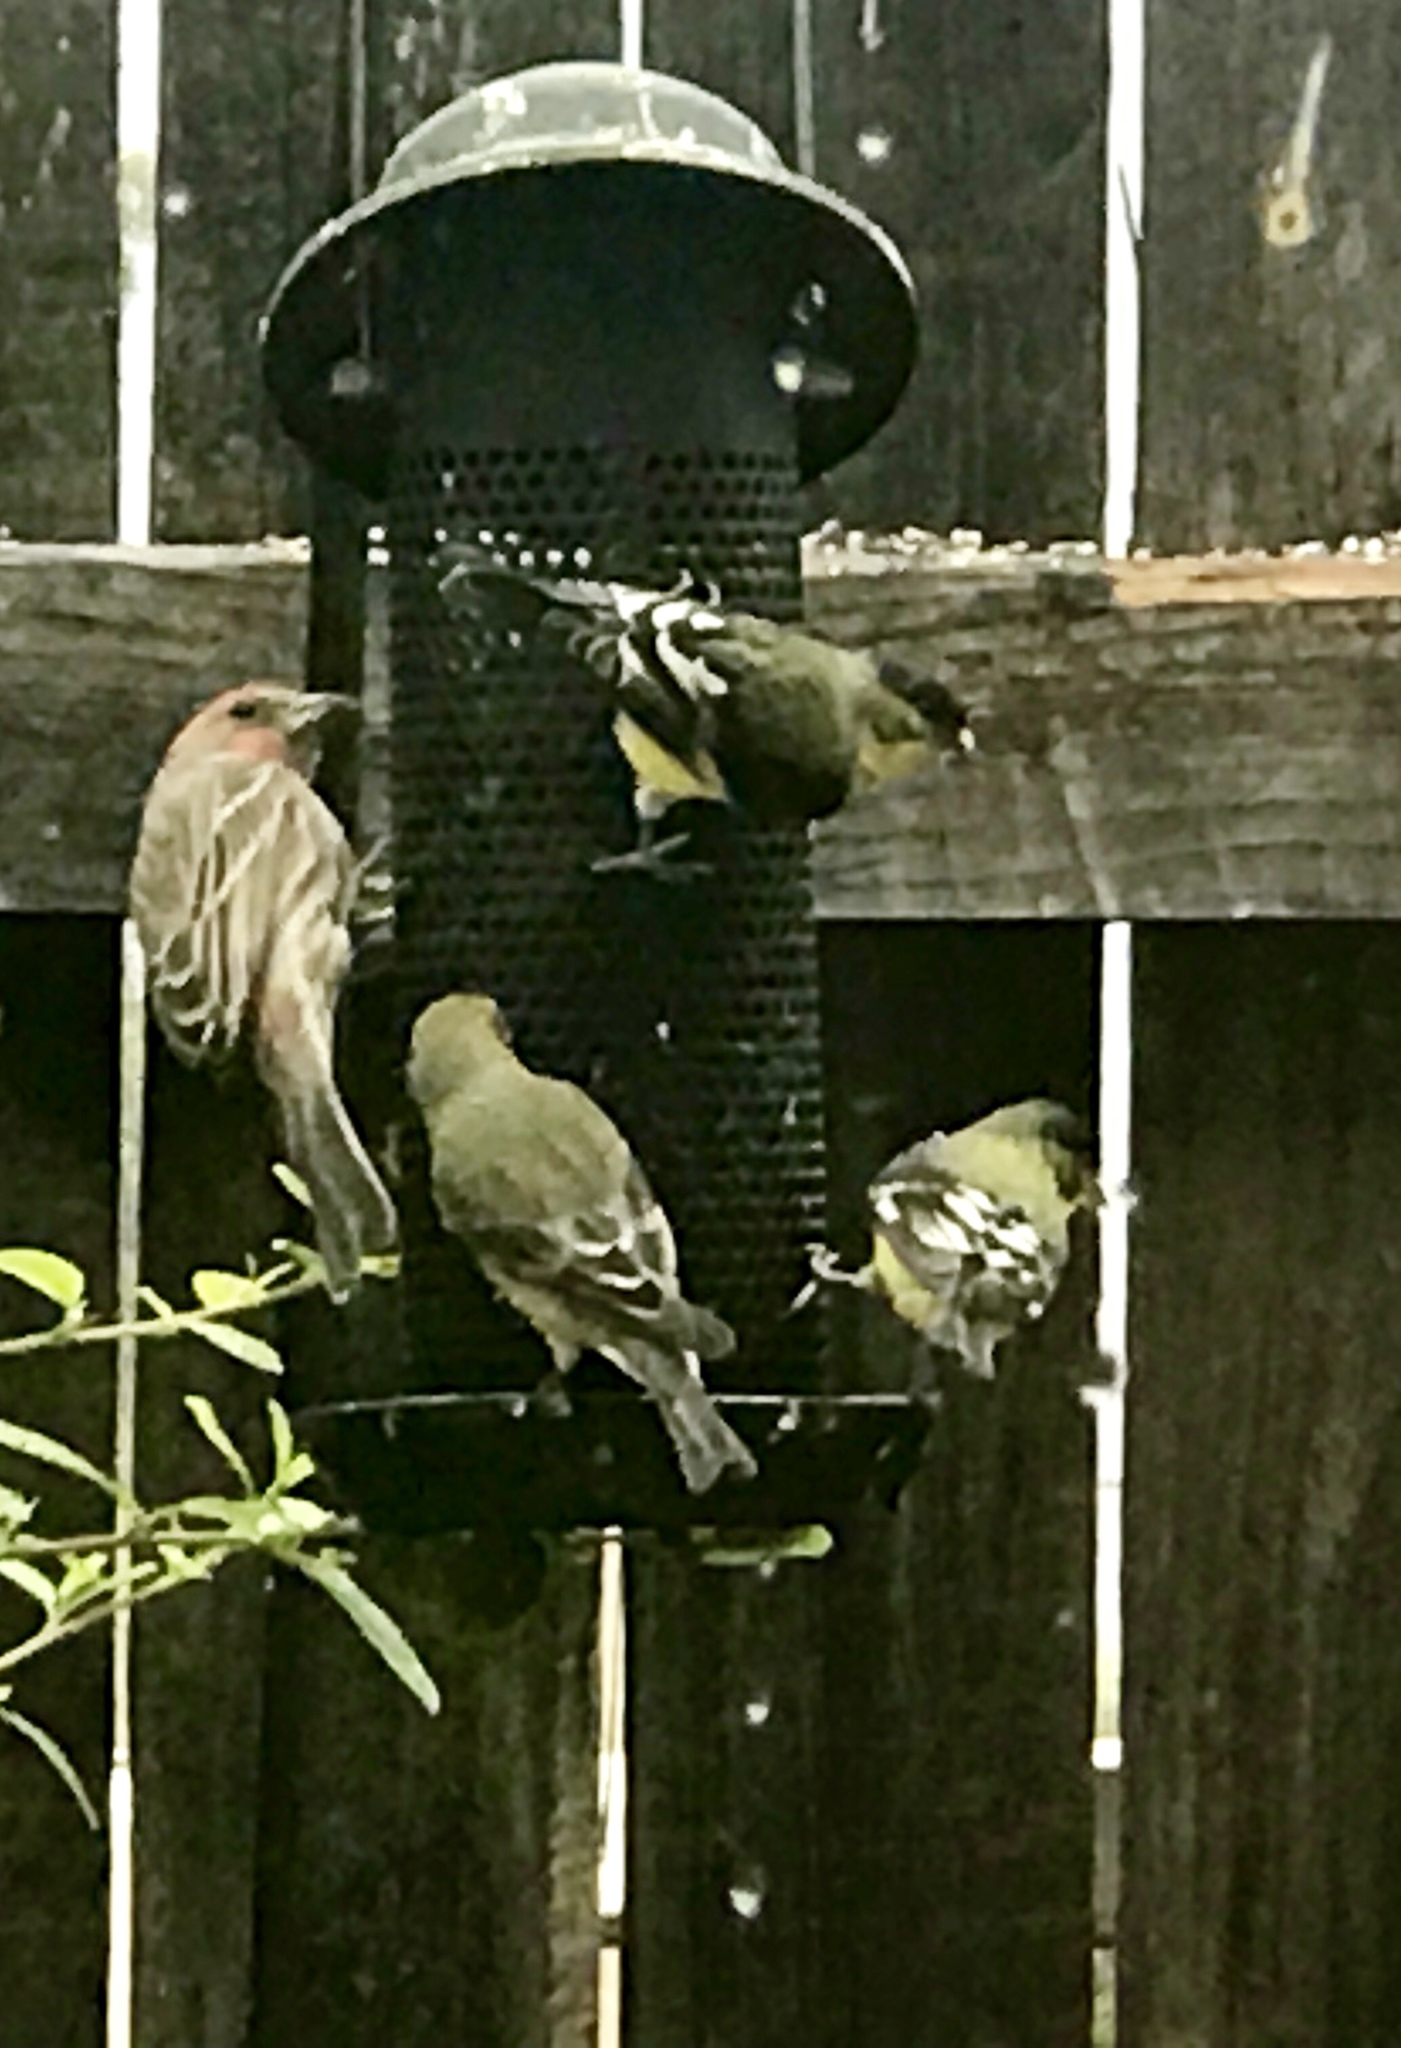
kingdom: Animalia
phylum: Chordata
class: Aves
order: Passeriformes
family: Fringillidae
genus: Spinus
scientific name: Spinus psaltria
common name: Lesser goldfinch
